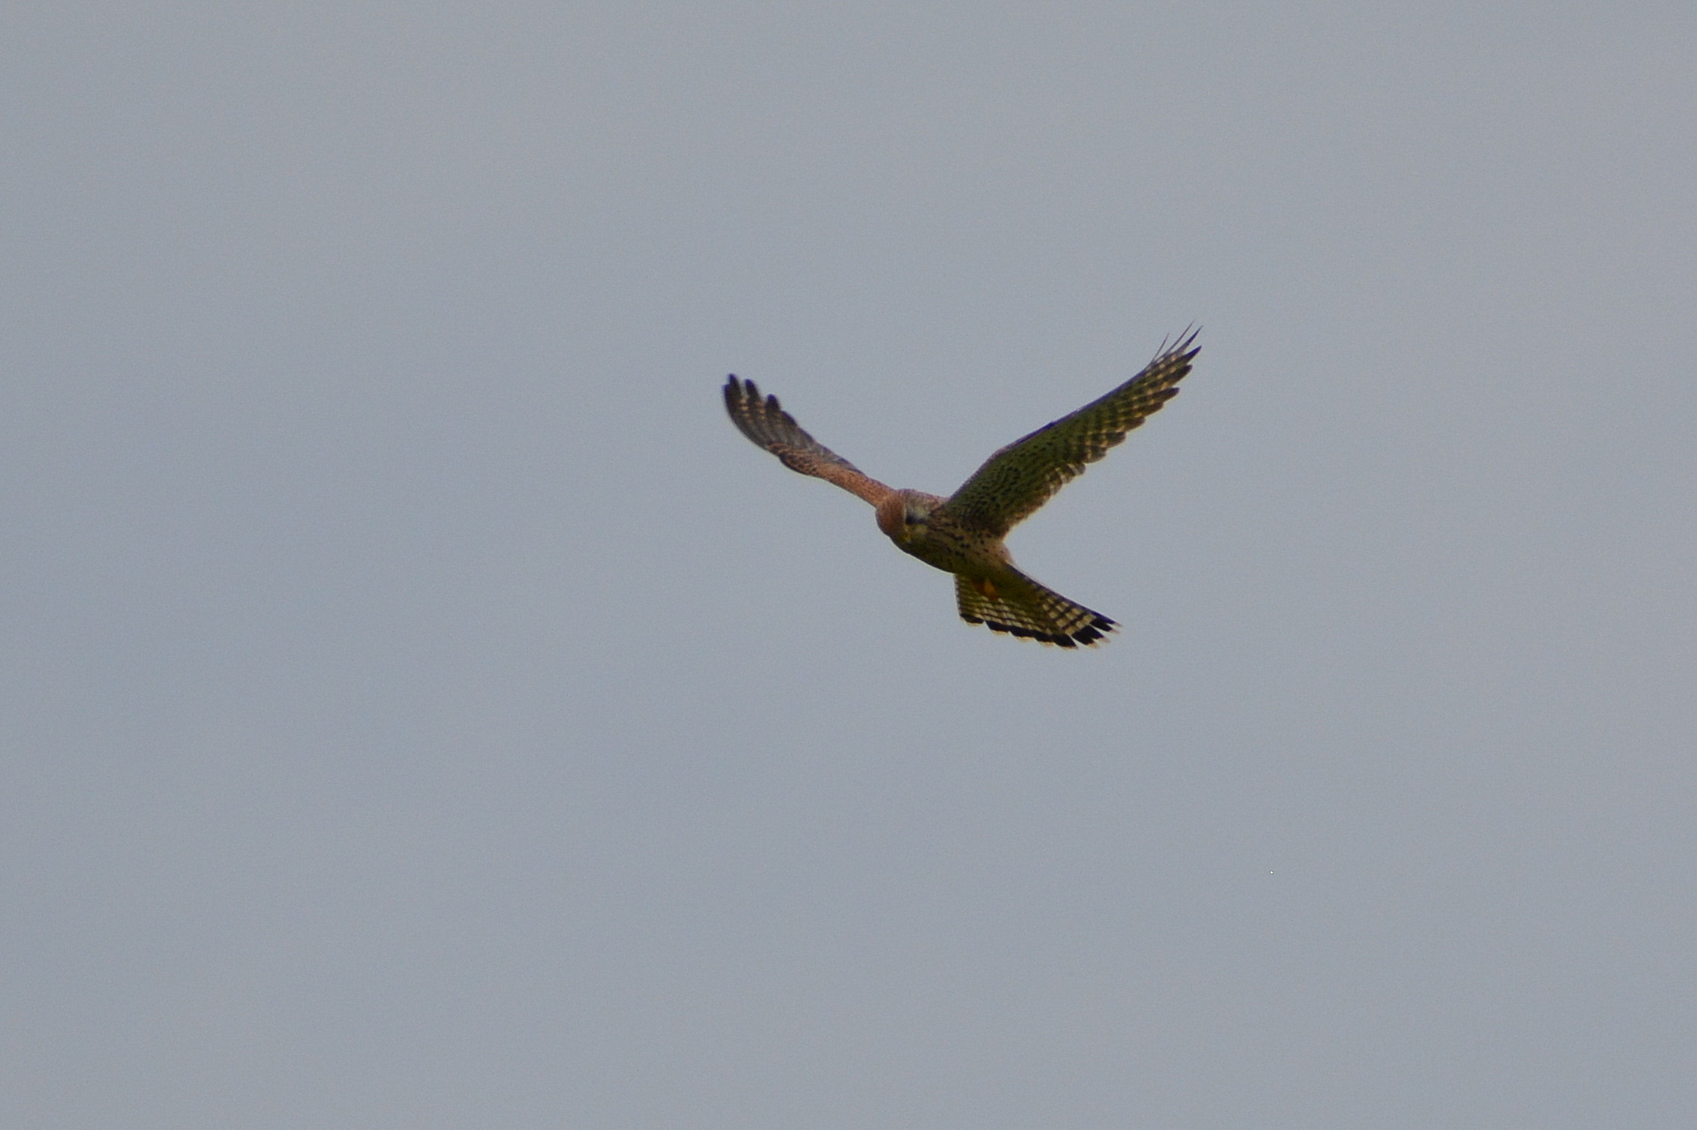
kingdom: Animalia
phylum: Chordata
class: Aves
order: Falconiformes
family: Falconidae
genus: Falco
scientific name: Falco tinnunculus
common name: Common kestrel
